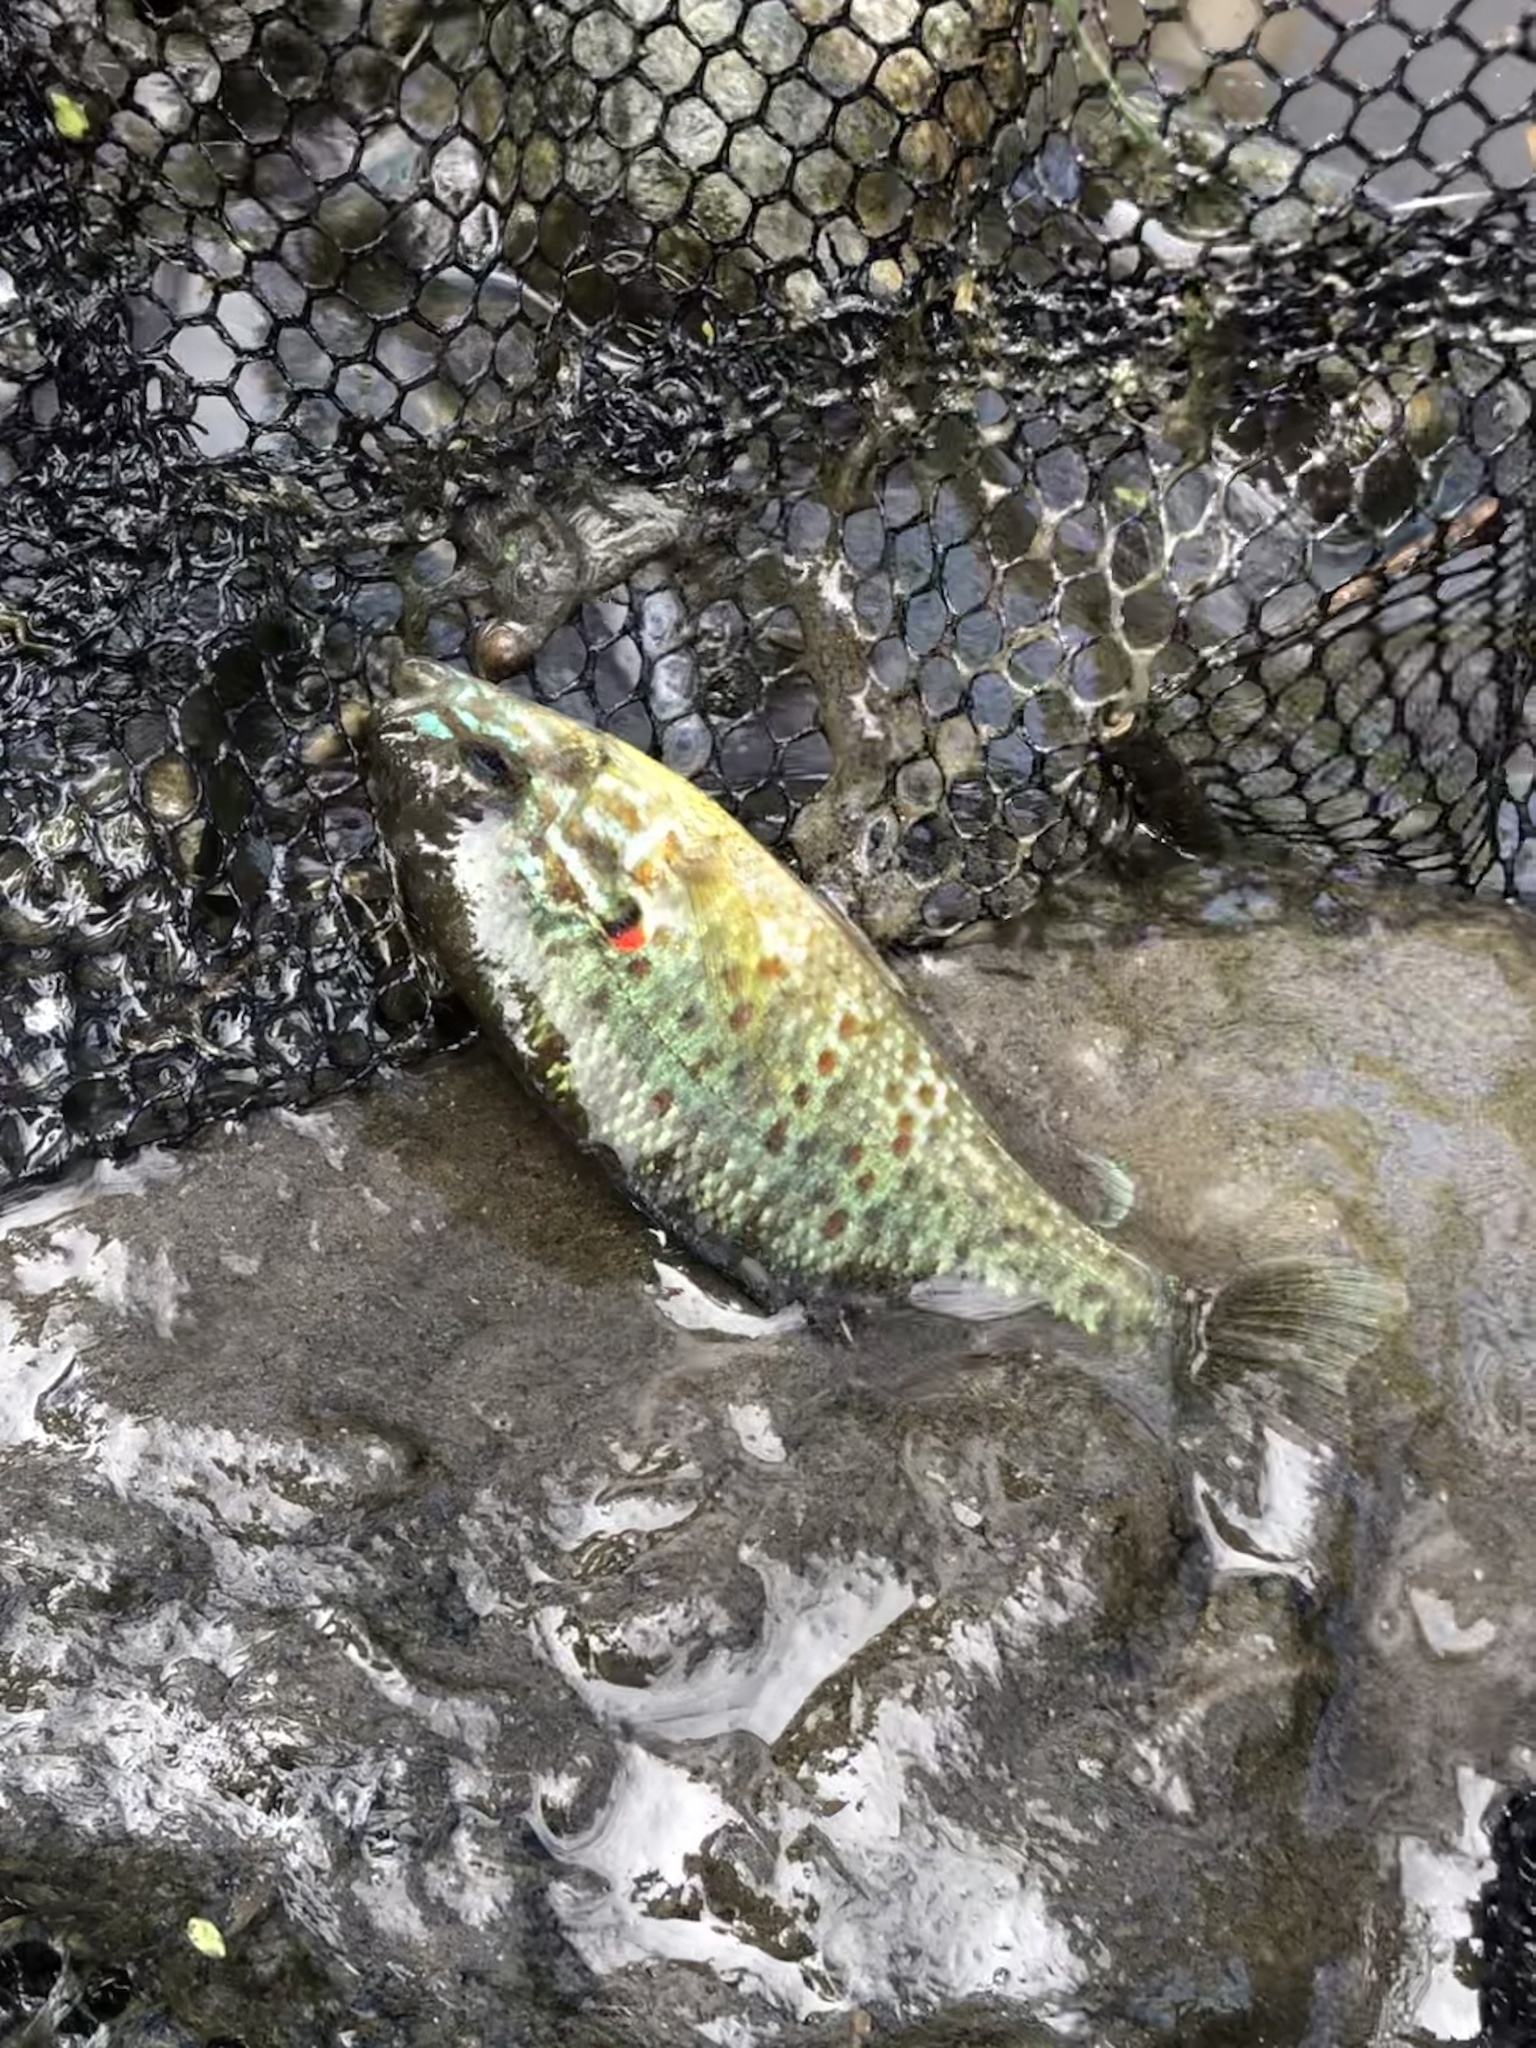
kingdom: Animalia
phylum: Chordata
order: Perciformes
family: Centrarchidae
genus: Lepomis
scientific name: Lepomis gibbosus
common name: Pumpkinseed
